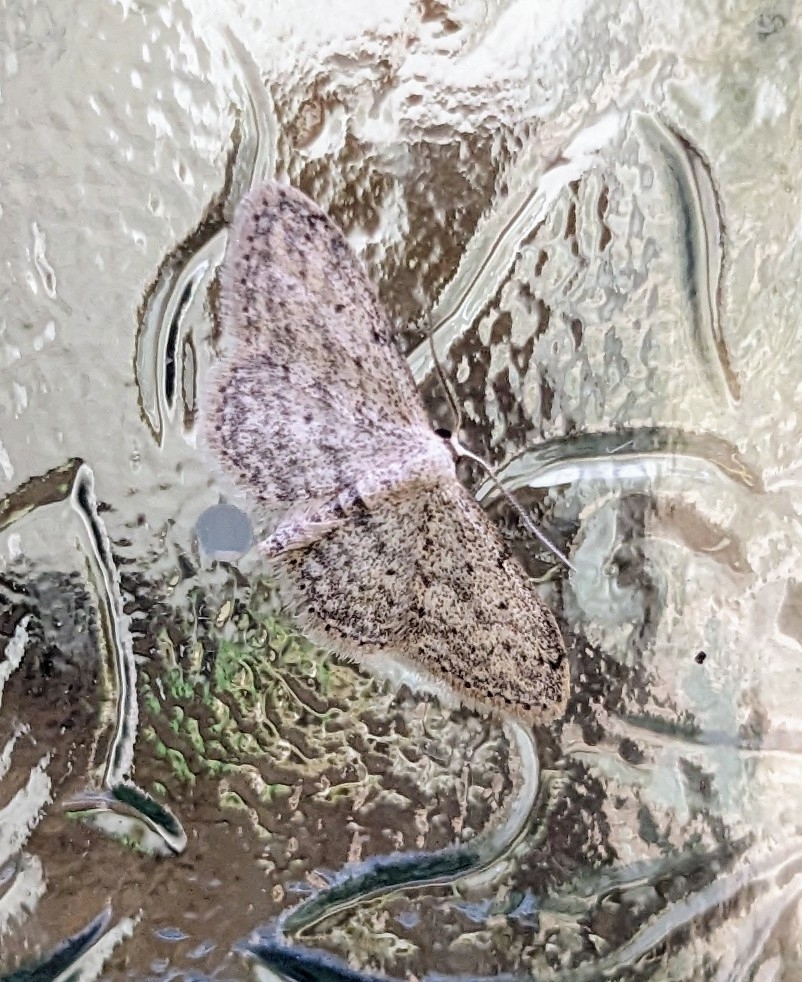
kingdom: Animalia
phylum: Arthropoda
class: Insecta
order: Lepidoptera
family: Geometridae
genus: Idaea
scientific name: Idaea seriata
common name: Small dusty wave
